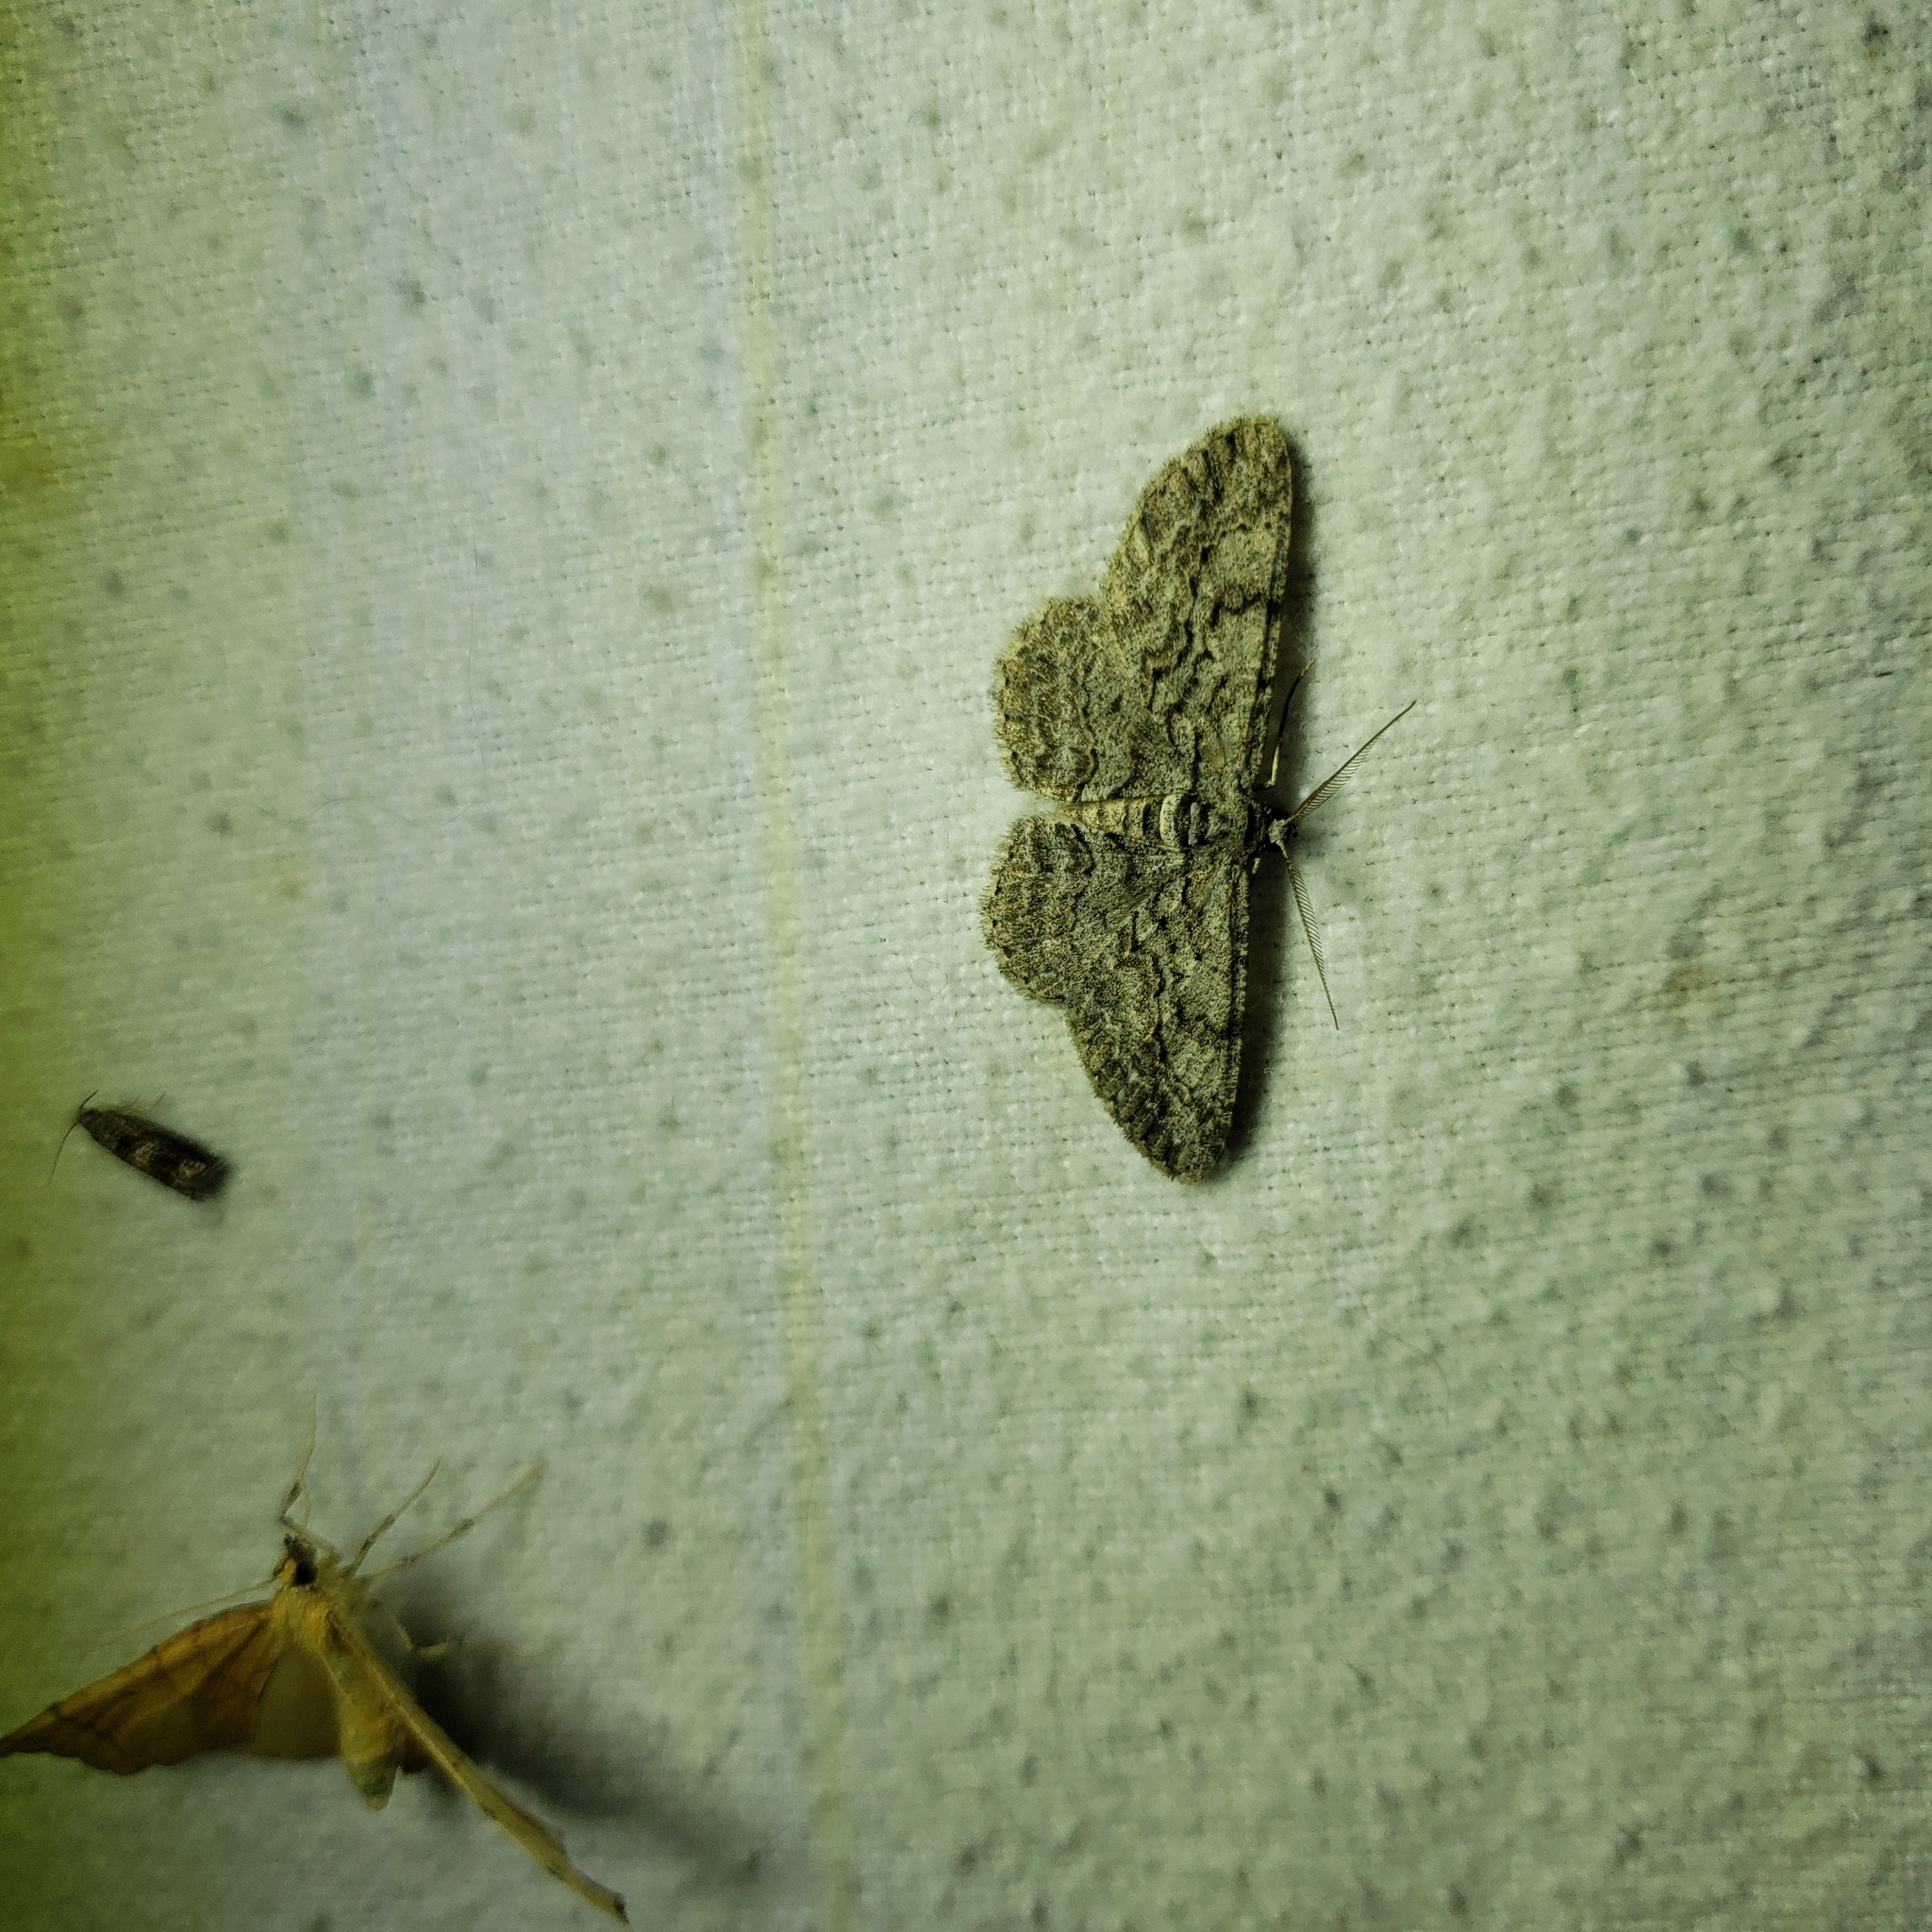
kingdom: Animalia
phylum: Arthropoda
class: Insecta
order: Lepidoptera
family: Geometridae
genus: Anavitrinella
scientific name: Anavitrinella pampinaria
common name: Common gray
